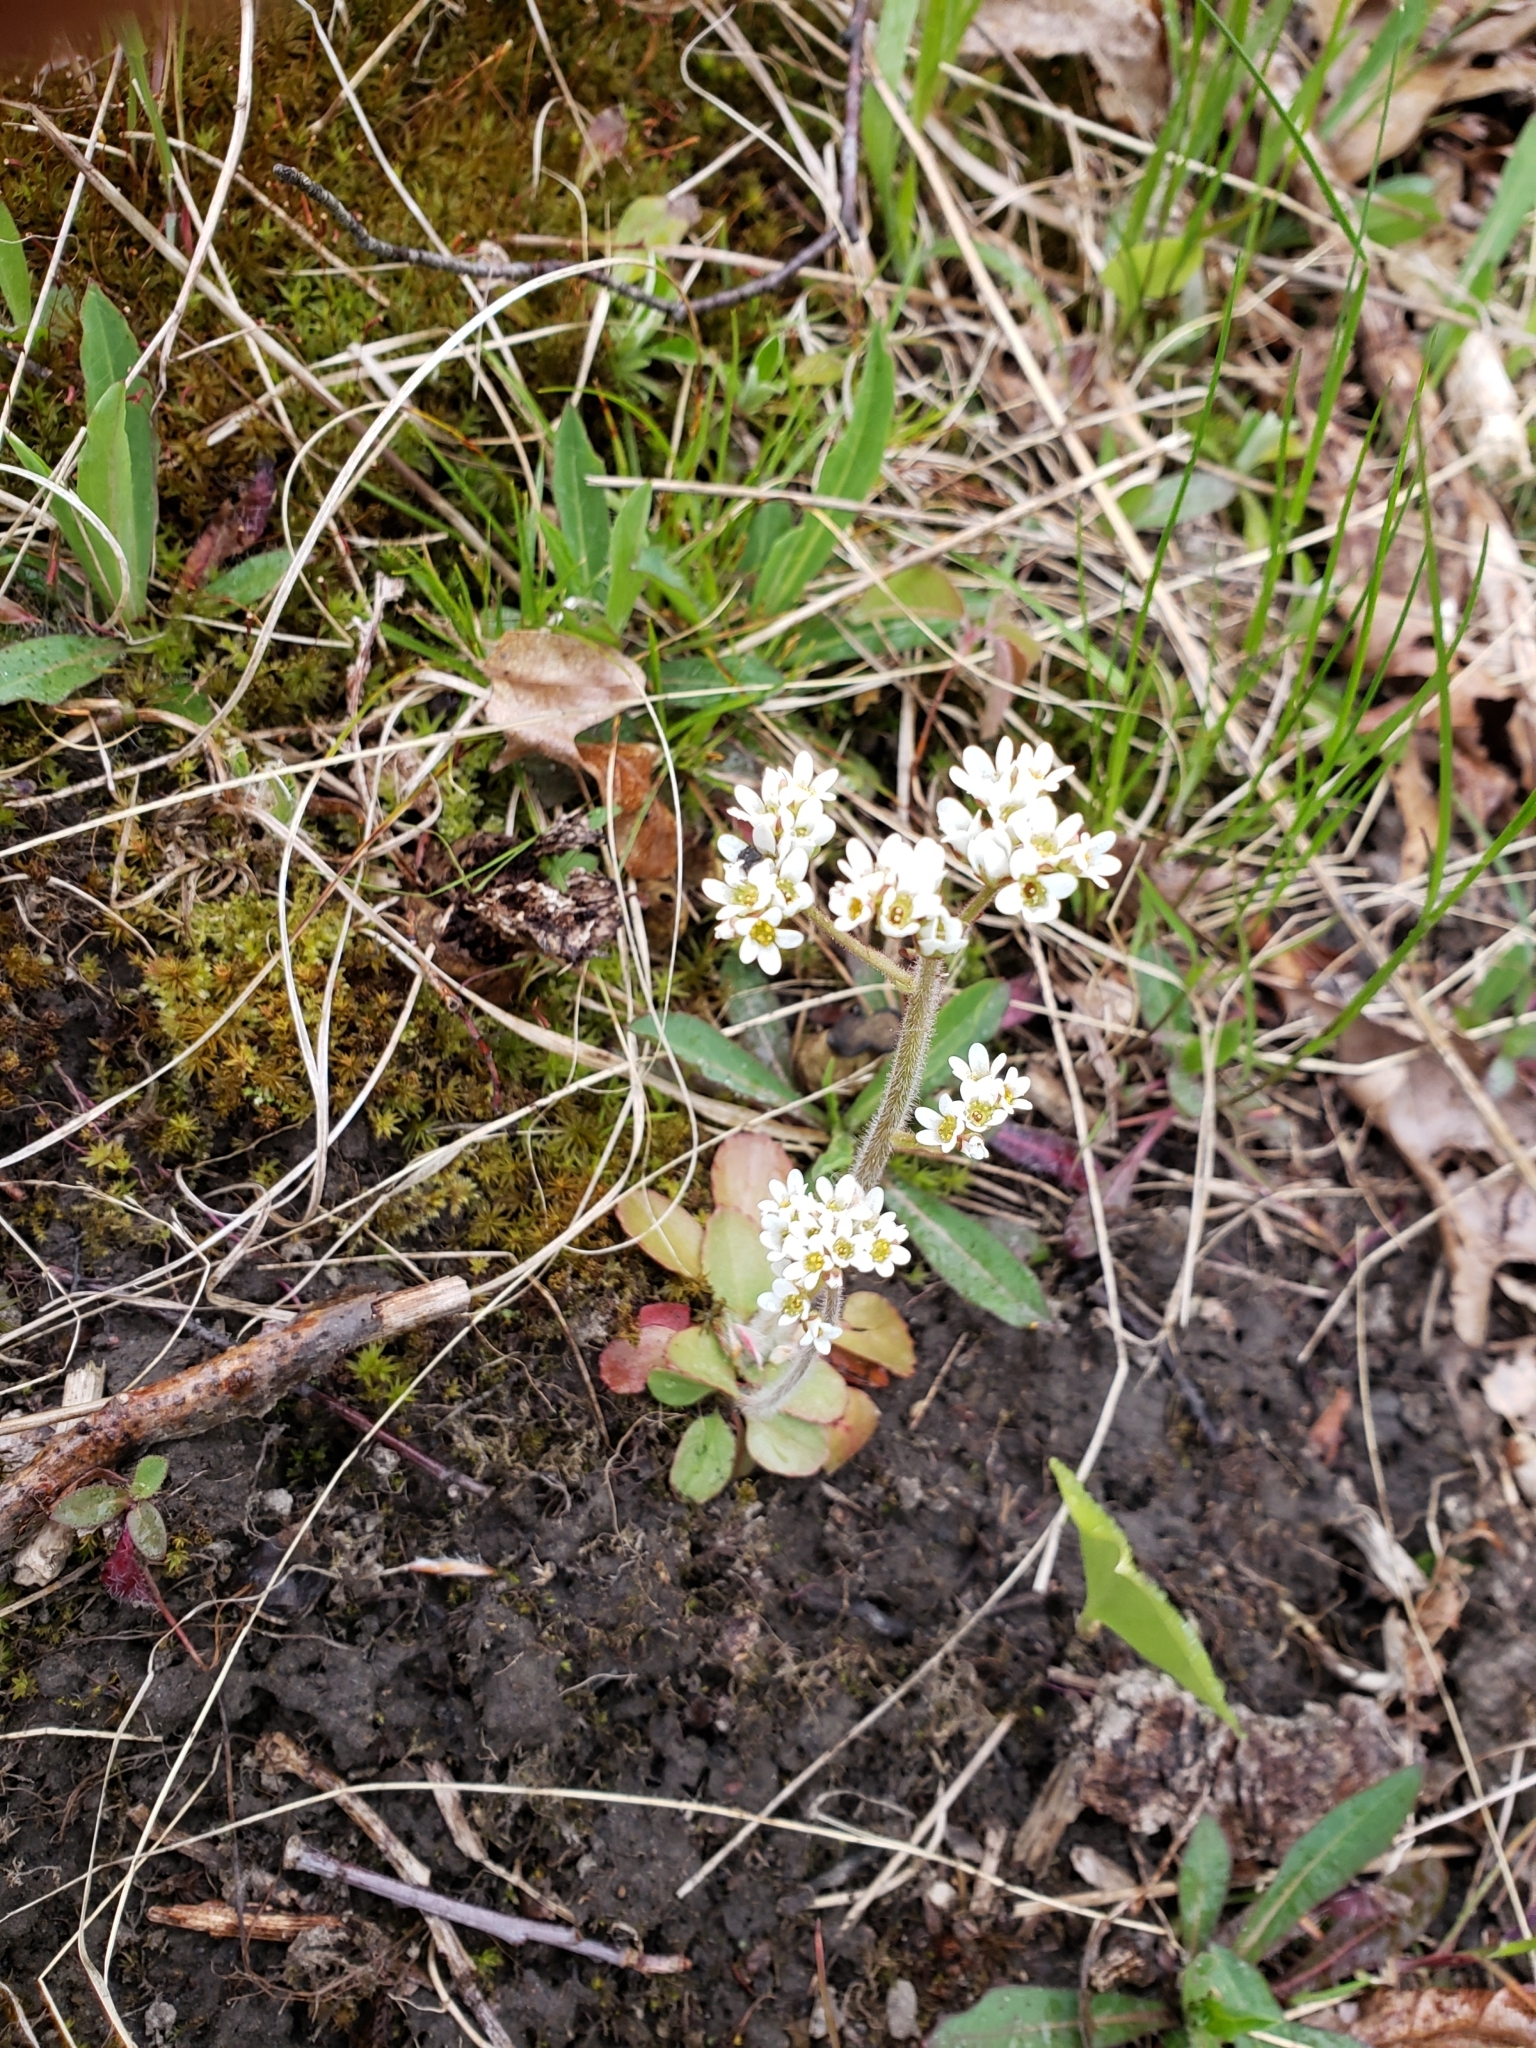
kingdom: Plantae
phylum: Tracheophyta
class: Magnoliopsida
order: Saxifragales
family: Saxifragaceae
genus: Micranthes
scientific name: Micranthes virginiensis
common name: Early saxifrage
